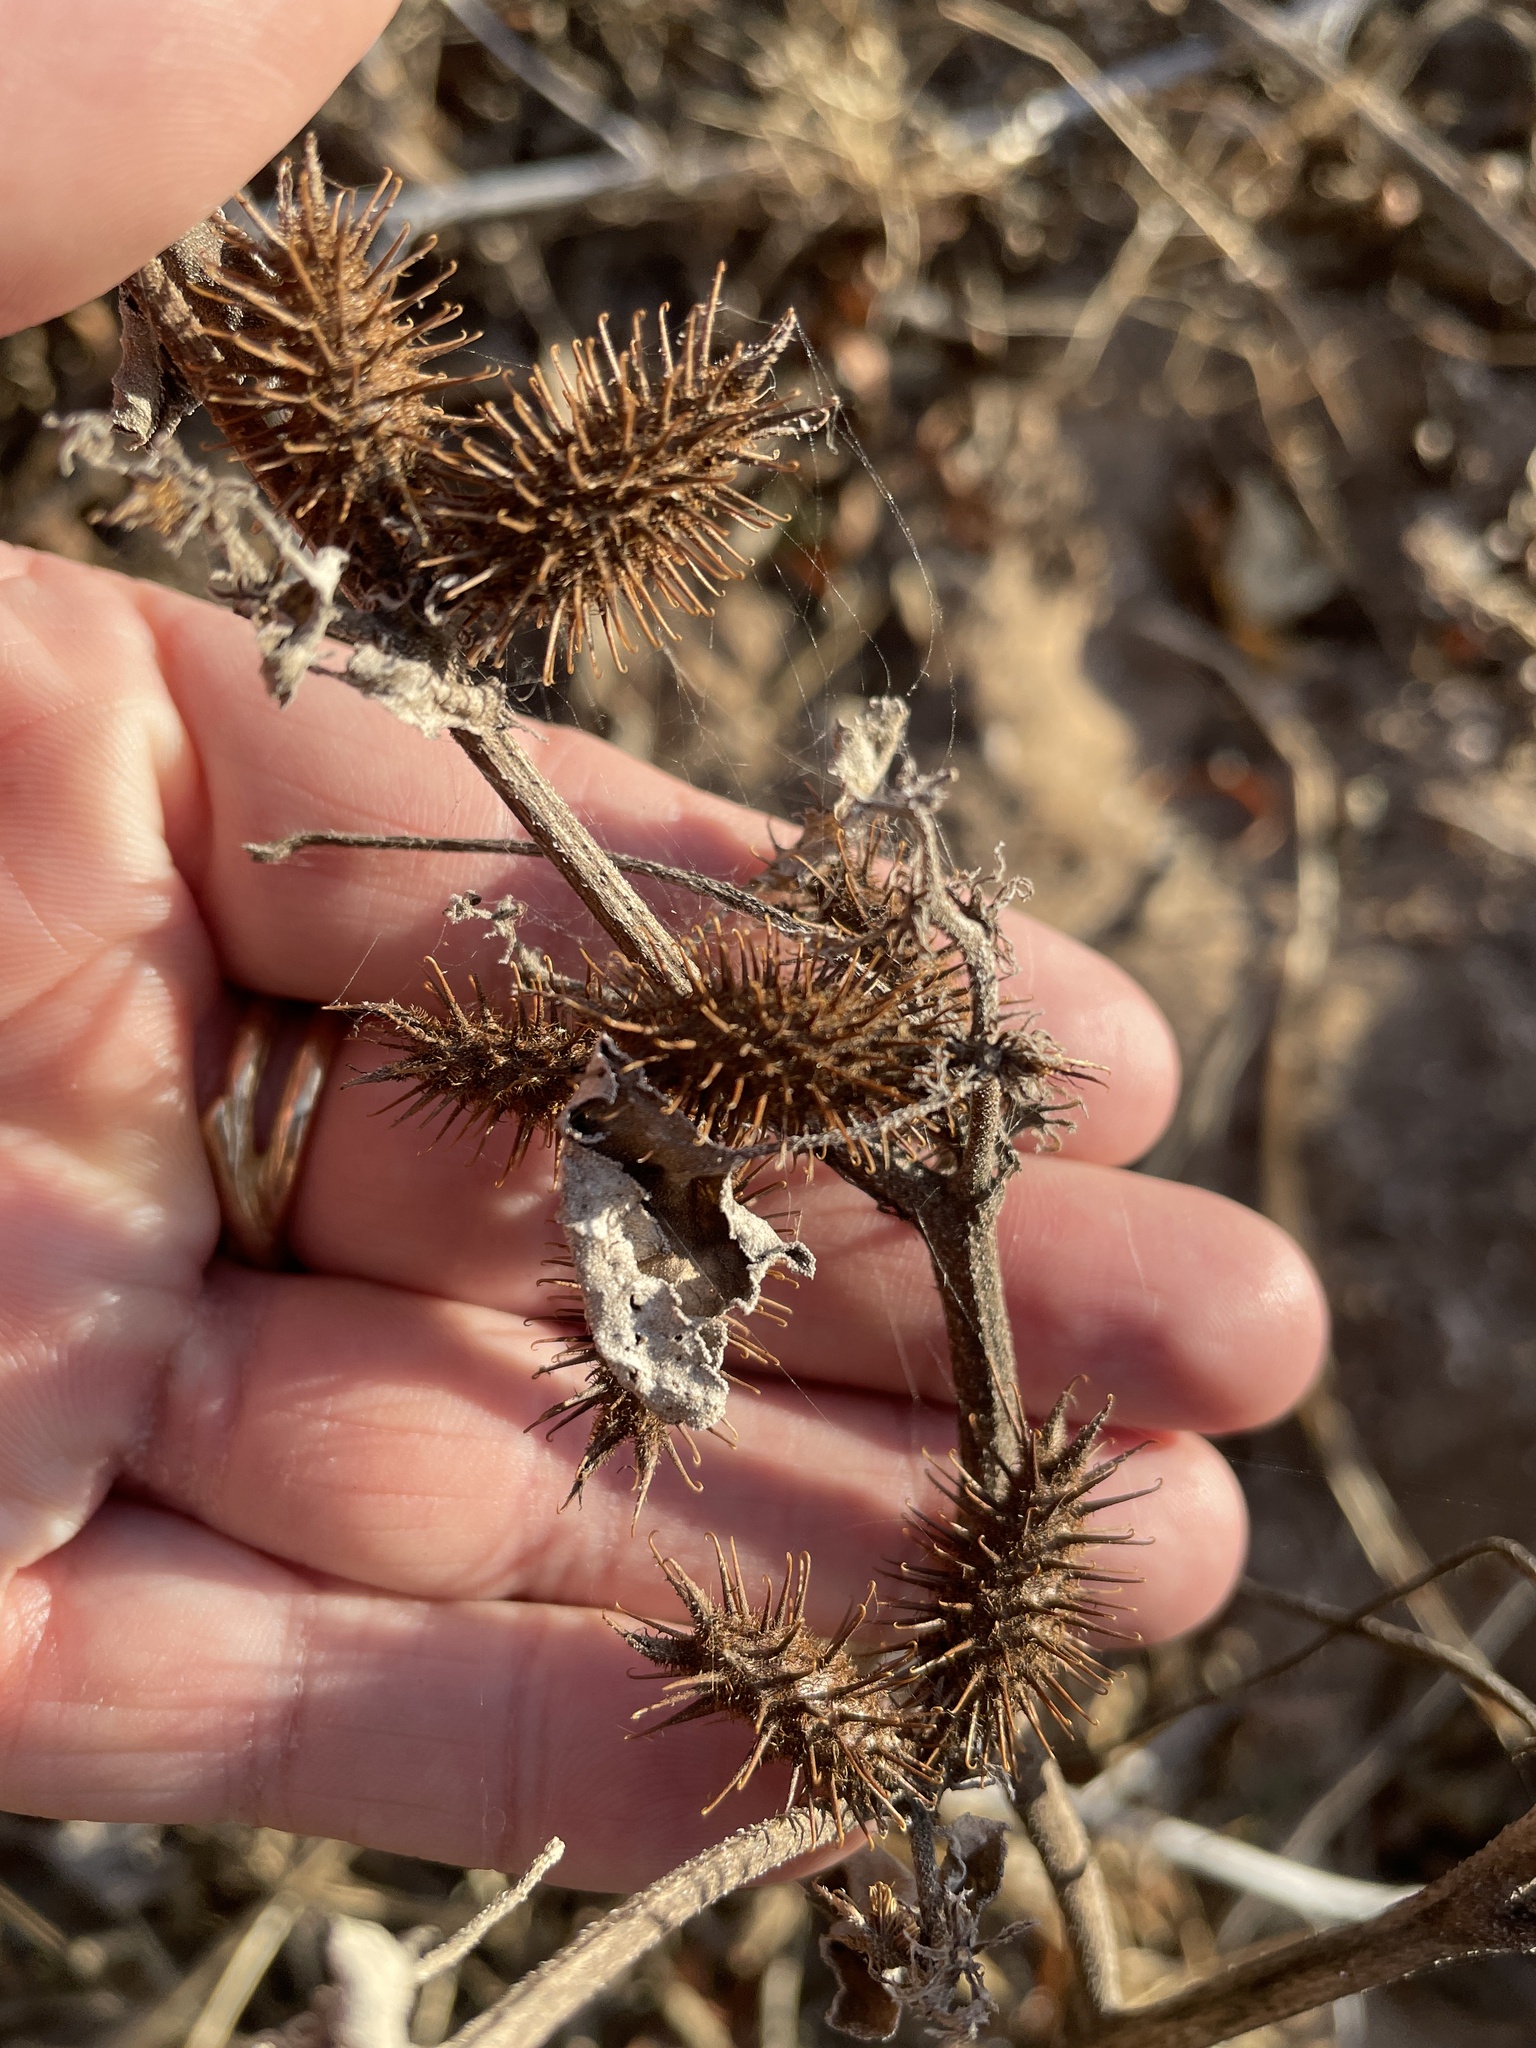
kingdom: Plantae
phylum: Tracheophyta
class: Magnoliopsida
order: Asterales
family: Asteraceae
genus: Xanthium
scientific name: Xanthium strumarium
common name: Rough cocklebur
